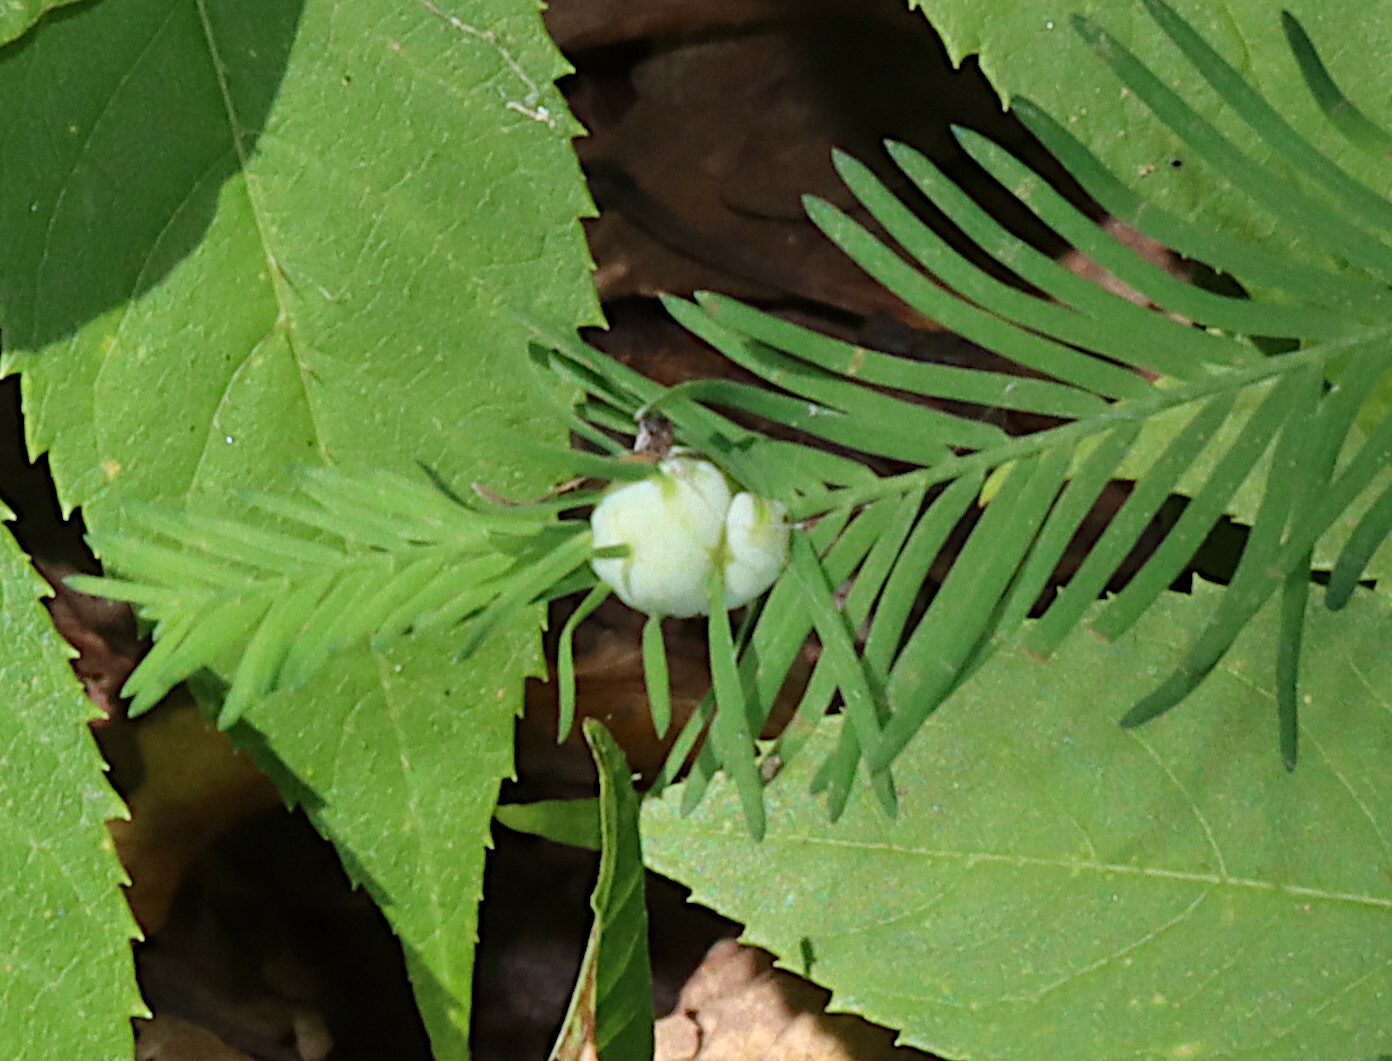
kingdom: Animalia
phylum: Arthropoda
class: Insecta
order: Diptera
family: Cecidomyiidae
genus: Taxodiomyia
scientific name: Taxodiomyia cupressiananassa
